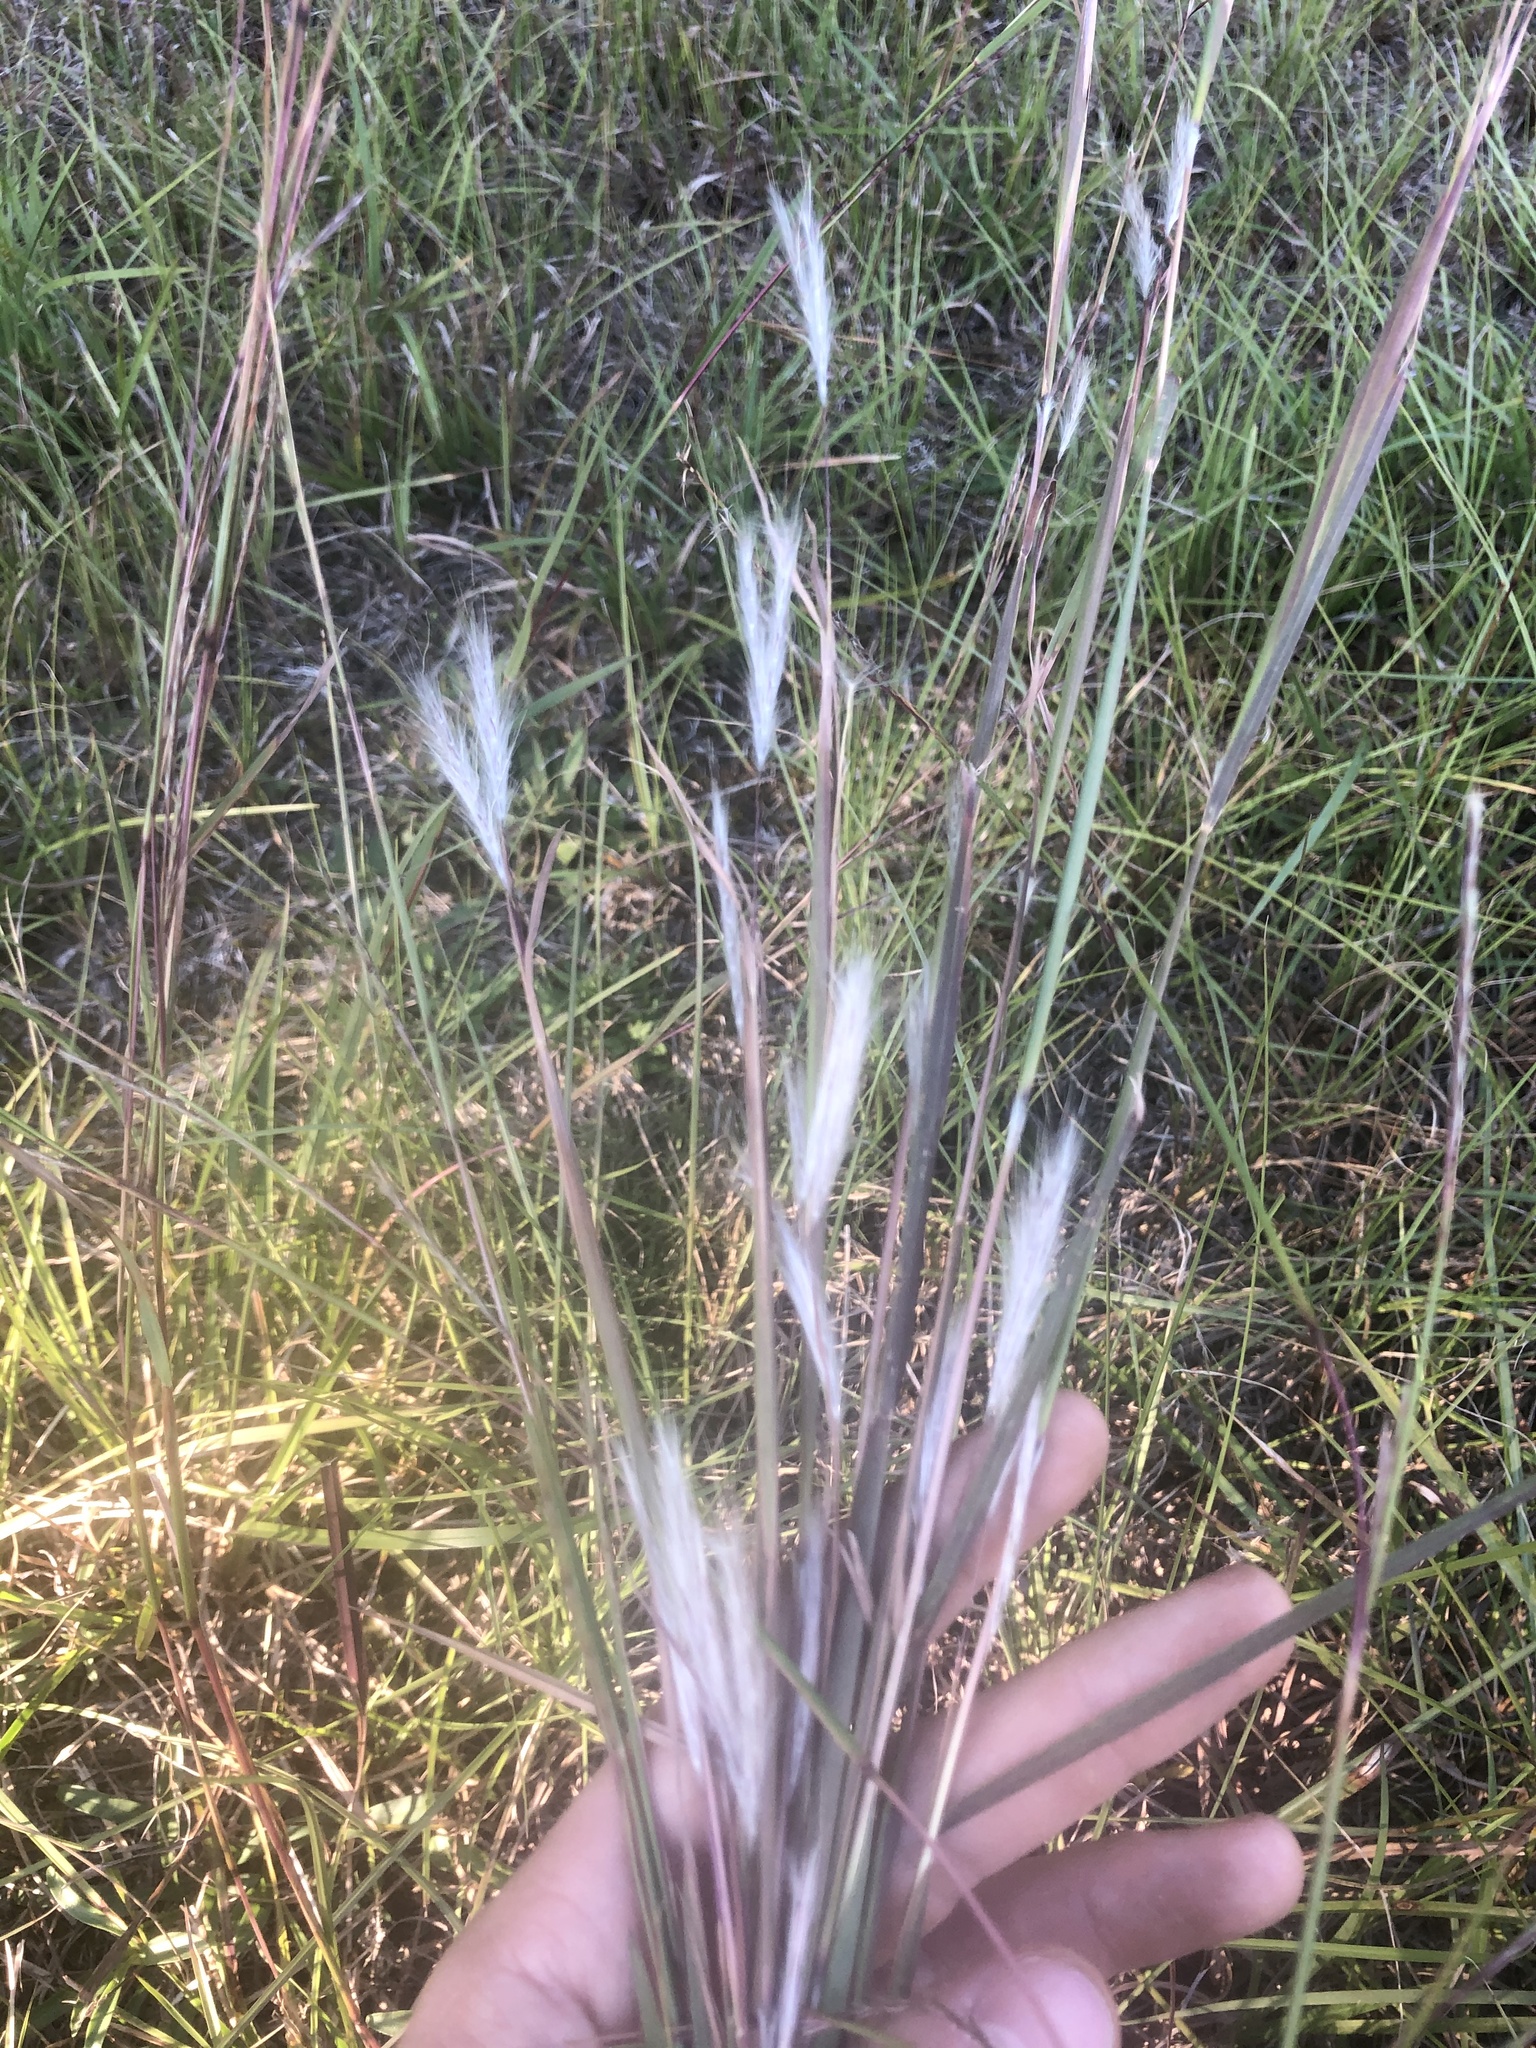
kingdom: Plantae
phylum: Tracheophyta
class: Liliopsida
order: Poales
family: Poaceae
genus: Andropogon
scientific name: Andropogon ternarius
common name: Split bluestem
